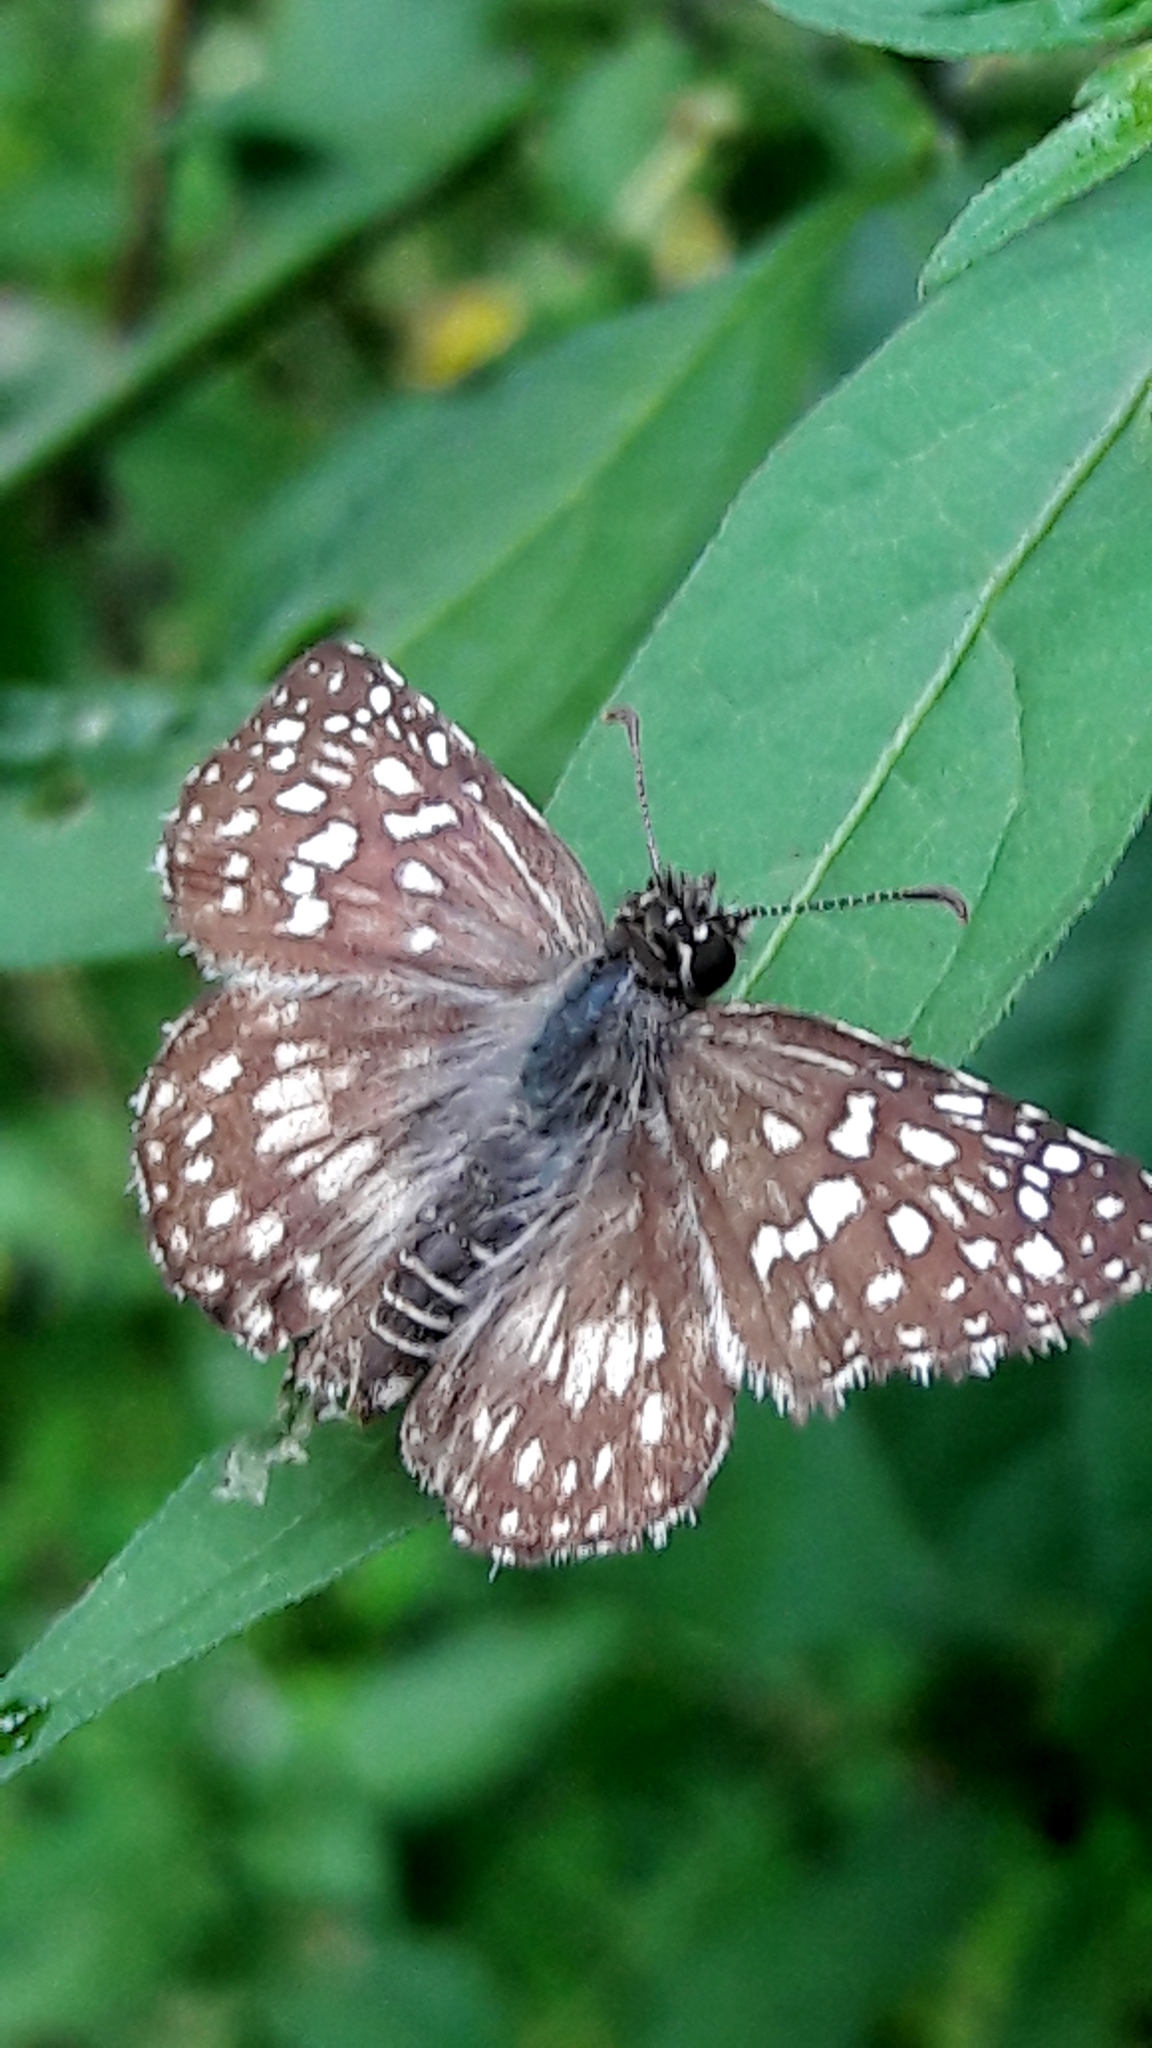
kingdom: Animalia
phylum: Arthropoda
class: Insecta
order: Lepidoptera
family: Hesperiidae
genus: Pyrgus
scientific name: Pyrgus oileus
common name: Tropical checkered-skipper
